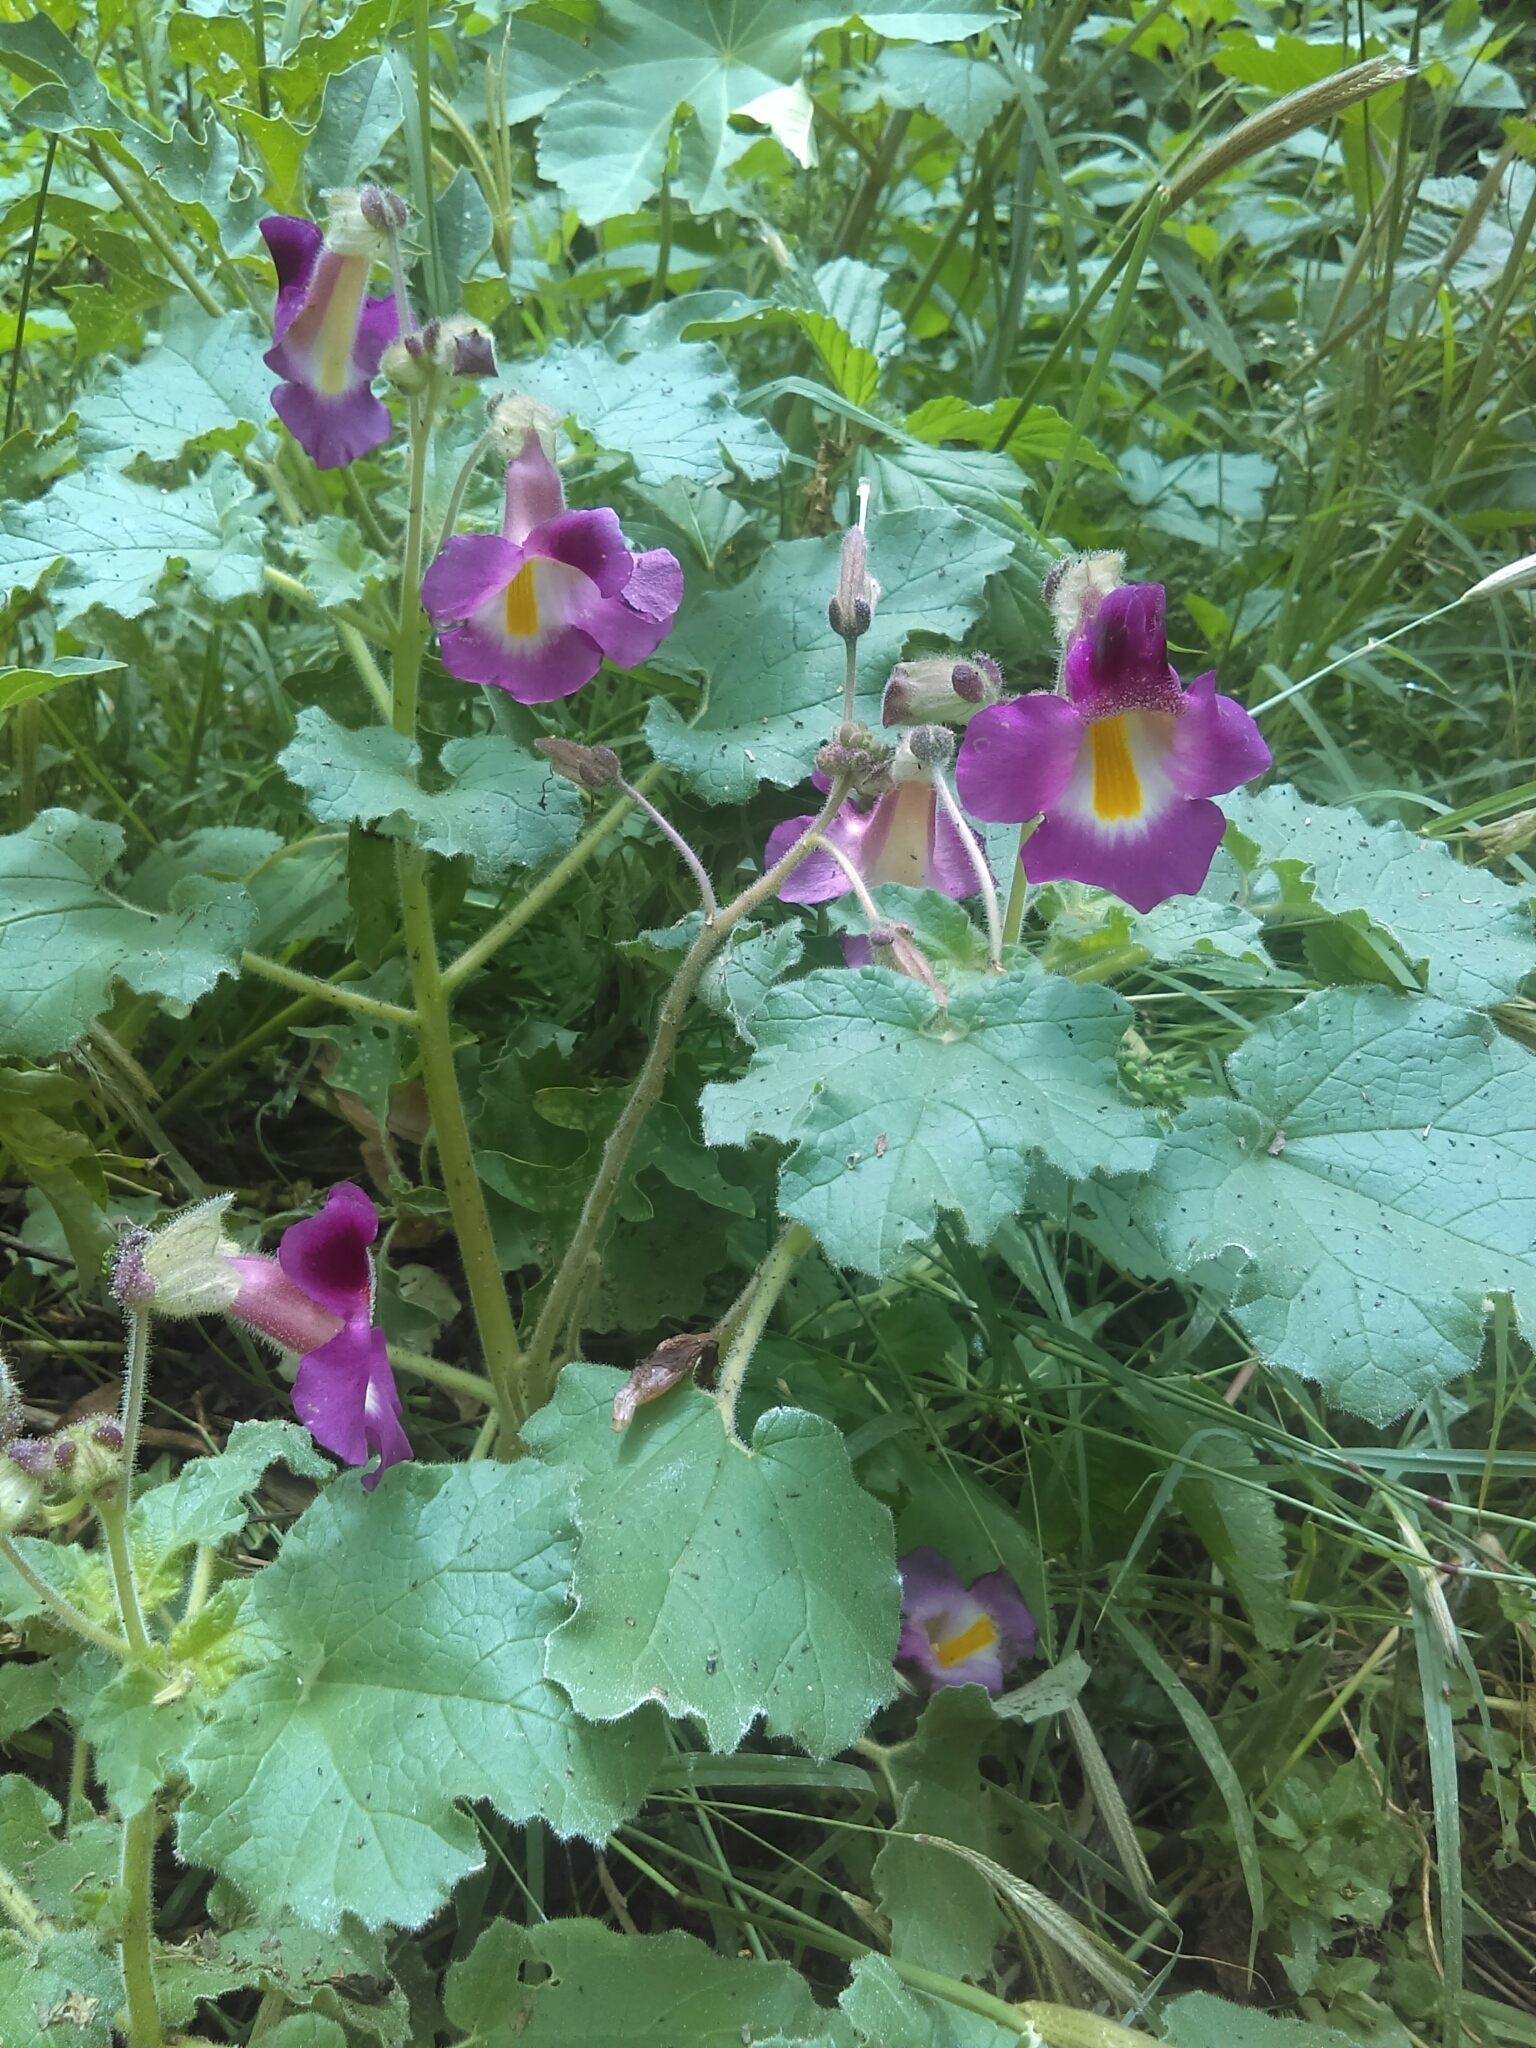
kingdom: Plantae
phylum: Tracheophyta
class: Magnoliopsida
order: Lamiales
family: Martyniaceae
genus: Proboscidea
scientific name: Proboscidea louisianica
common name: Elephant tusks
